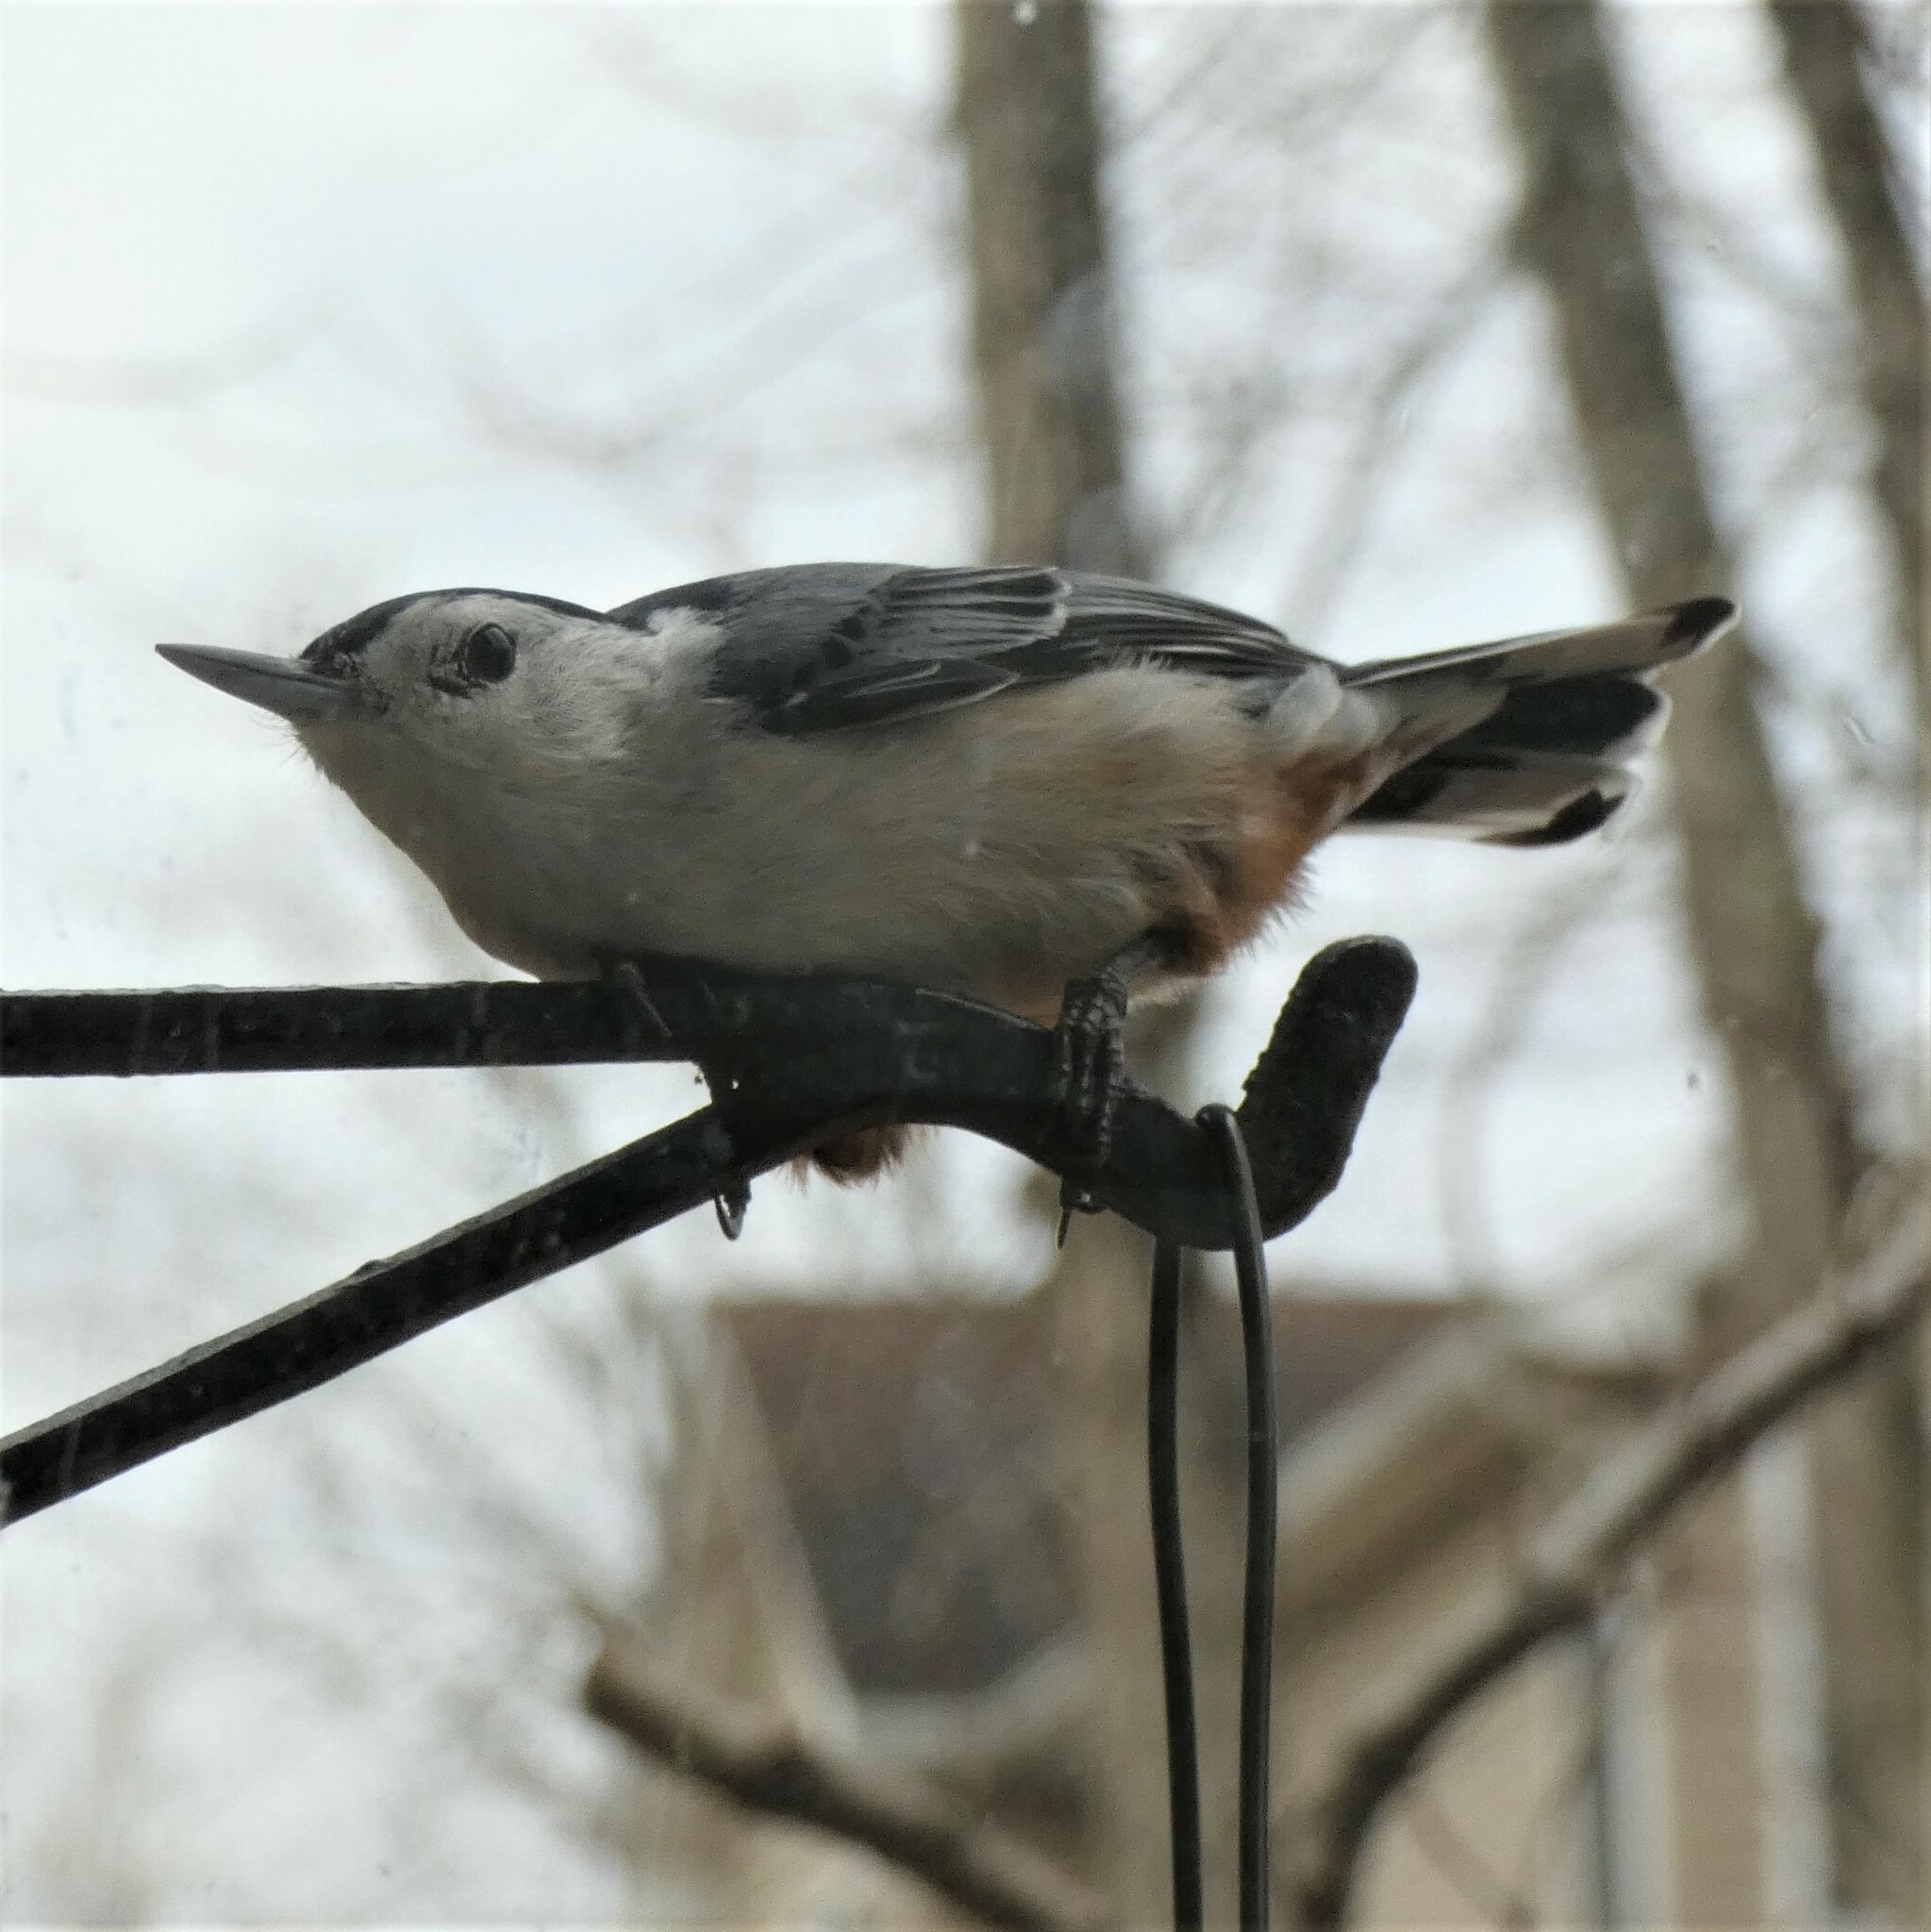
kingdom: Animalia
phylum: Chordata
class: Aves
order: Passeriformes
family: Sittidae
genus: Sitta
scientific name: Sitta carolinensis
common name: White-breasted nuthatch
